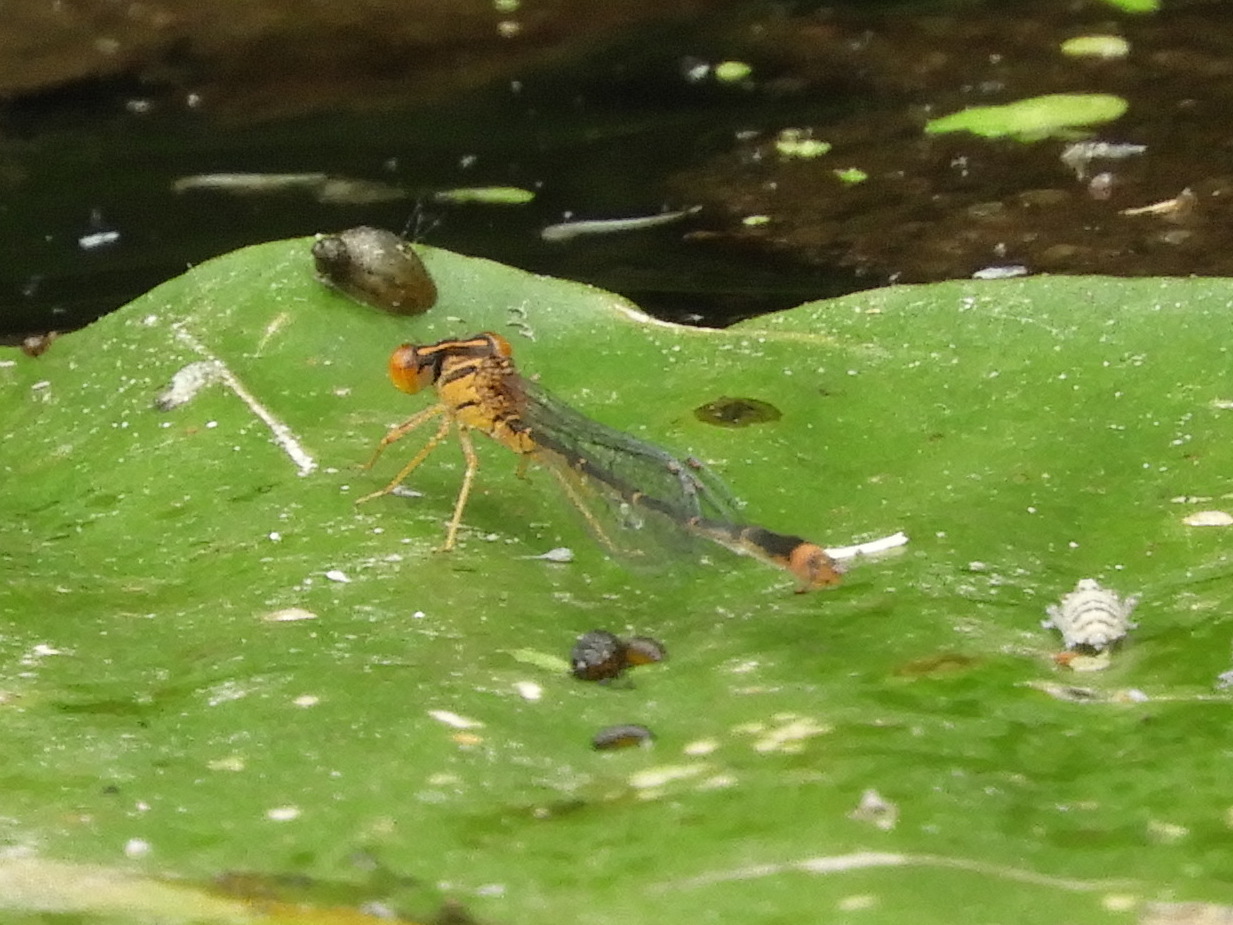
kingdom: Animalia
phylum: Arthropoda
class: Insecta
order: Odonata
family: Coenagrionidae
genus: Enallagma
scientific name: Enallagma signatum
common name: Orange bluet
